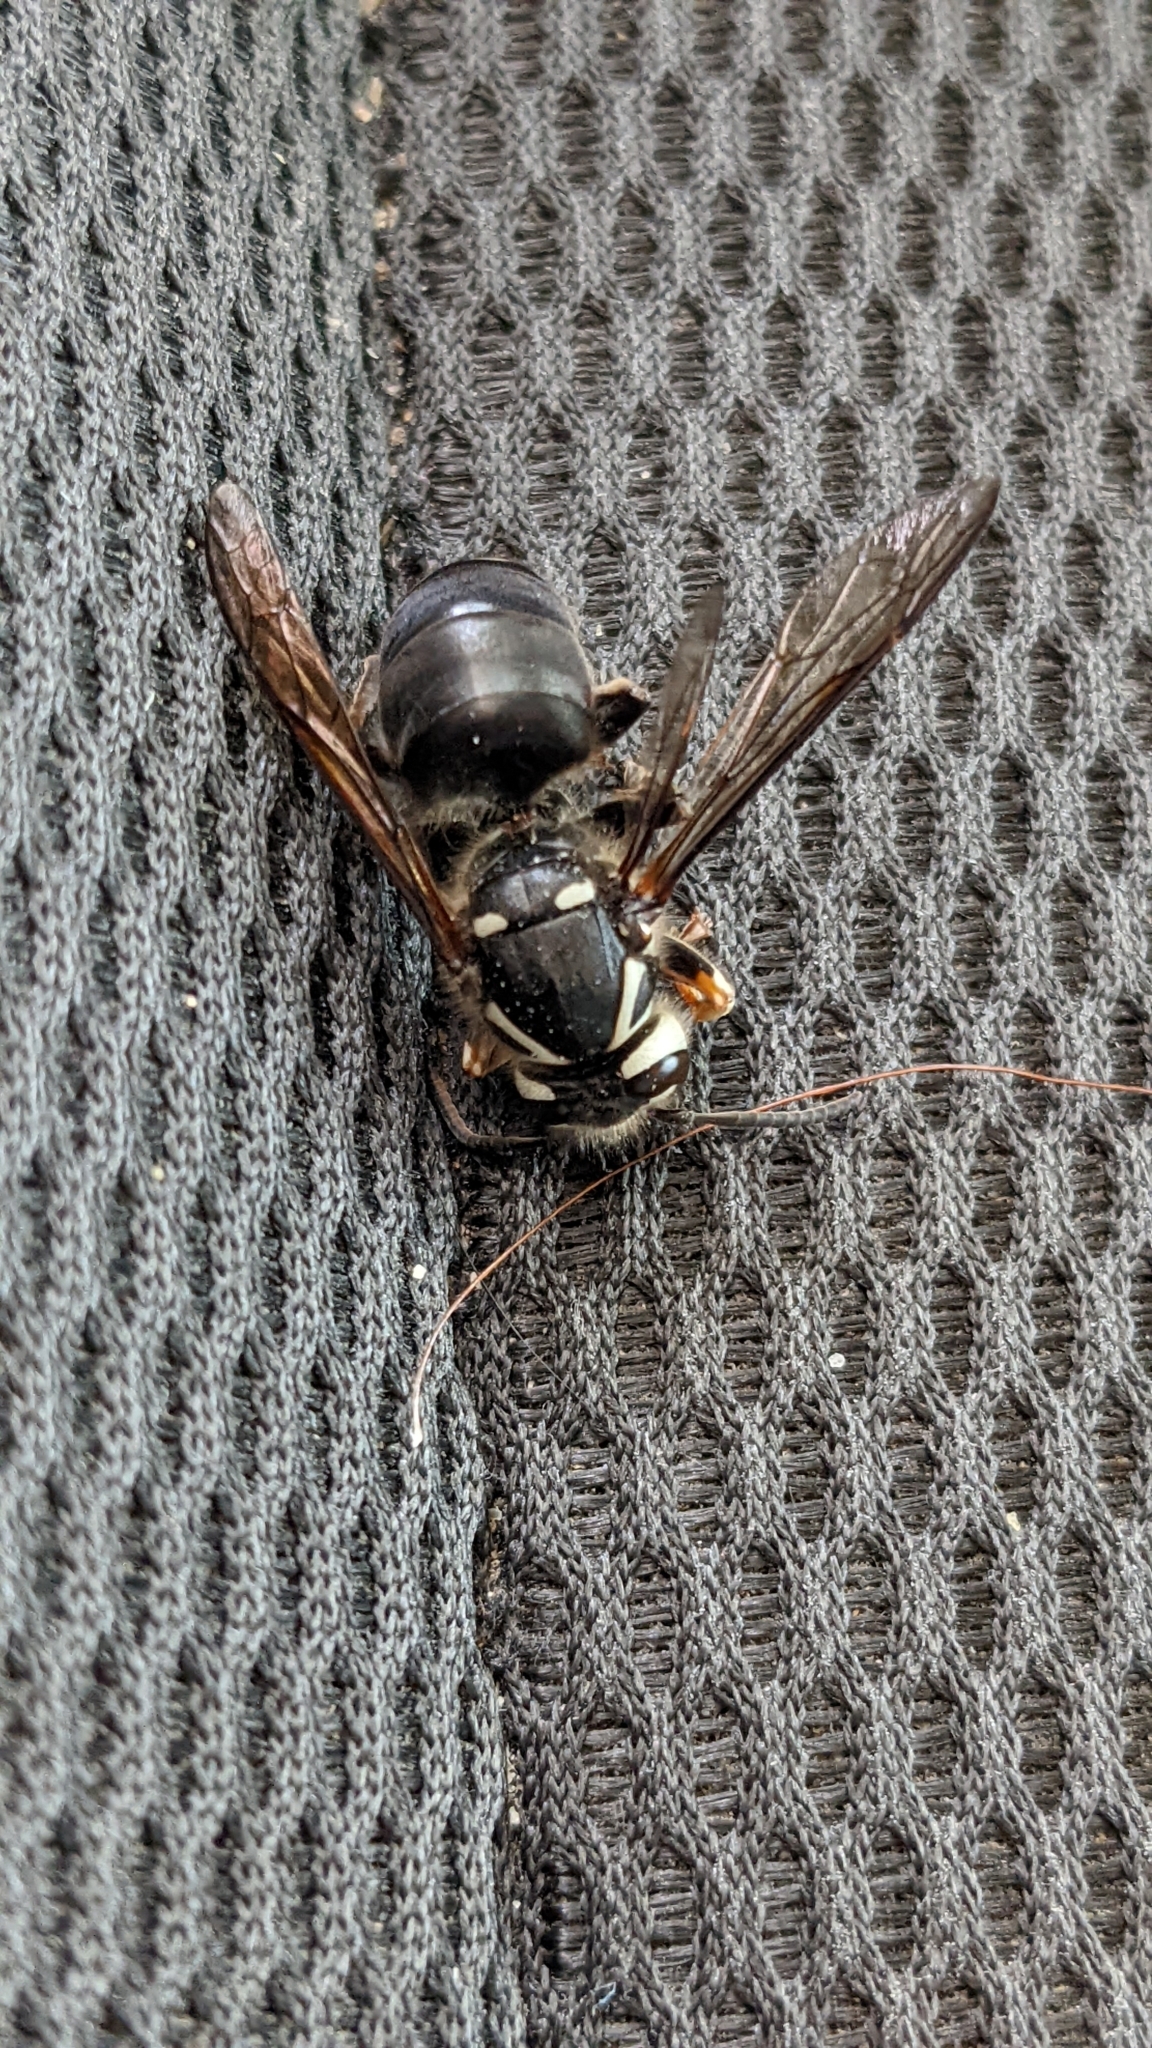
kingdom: Animalia
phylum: Arthropoda
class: Insecta
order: Hymenoptera
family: Vespidae
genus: Dolichovespula
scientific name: Dolichovespula maculata
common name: Bald-faced hornet
